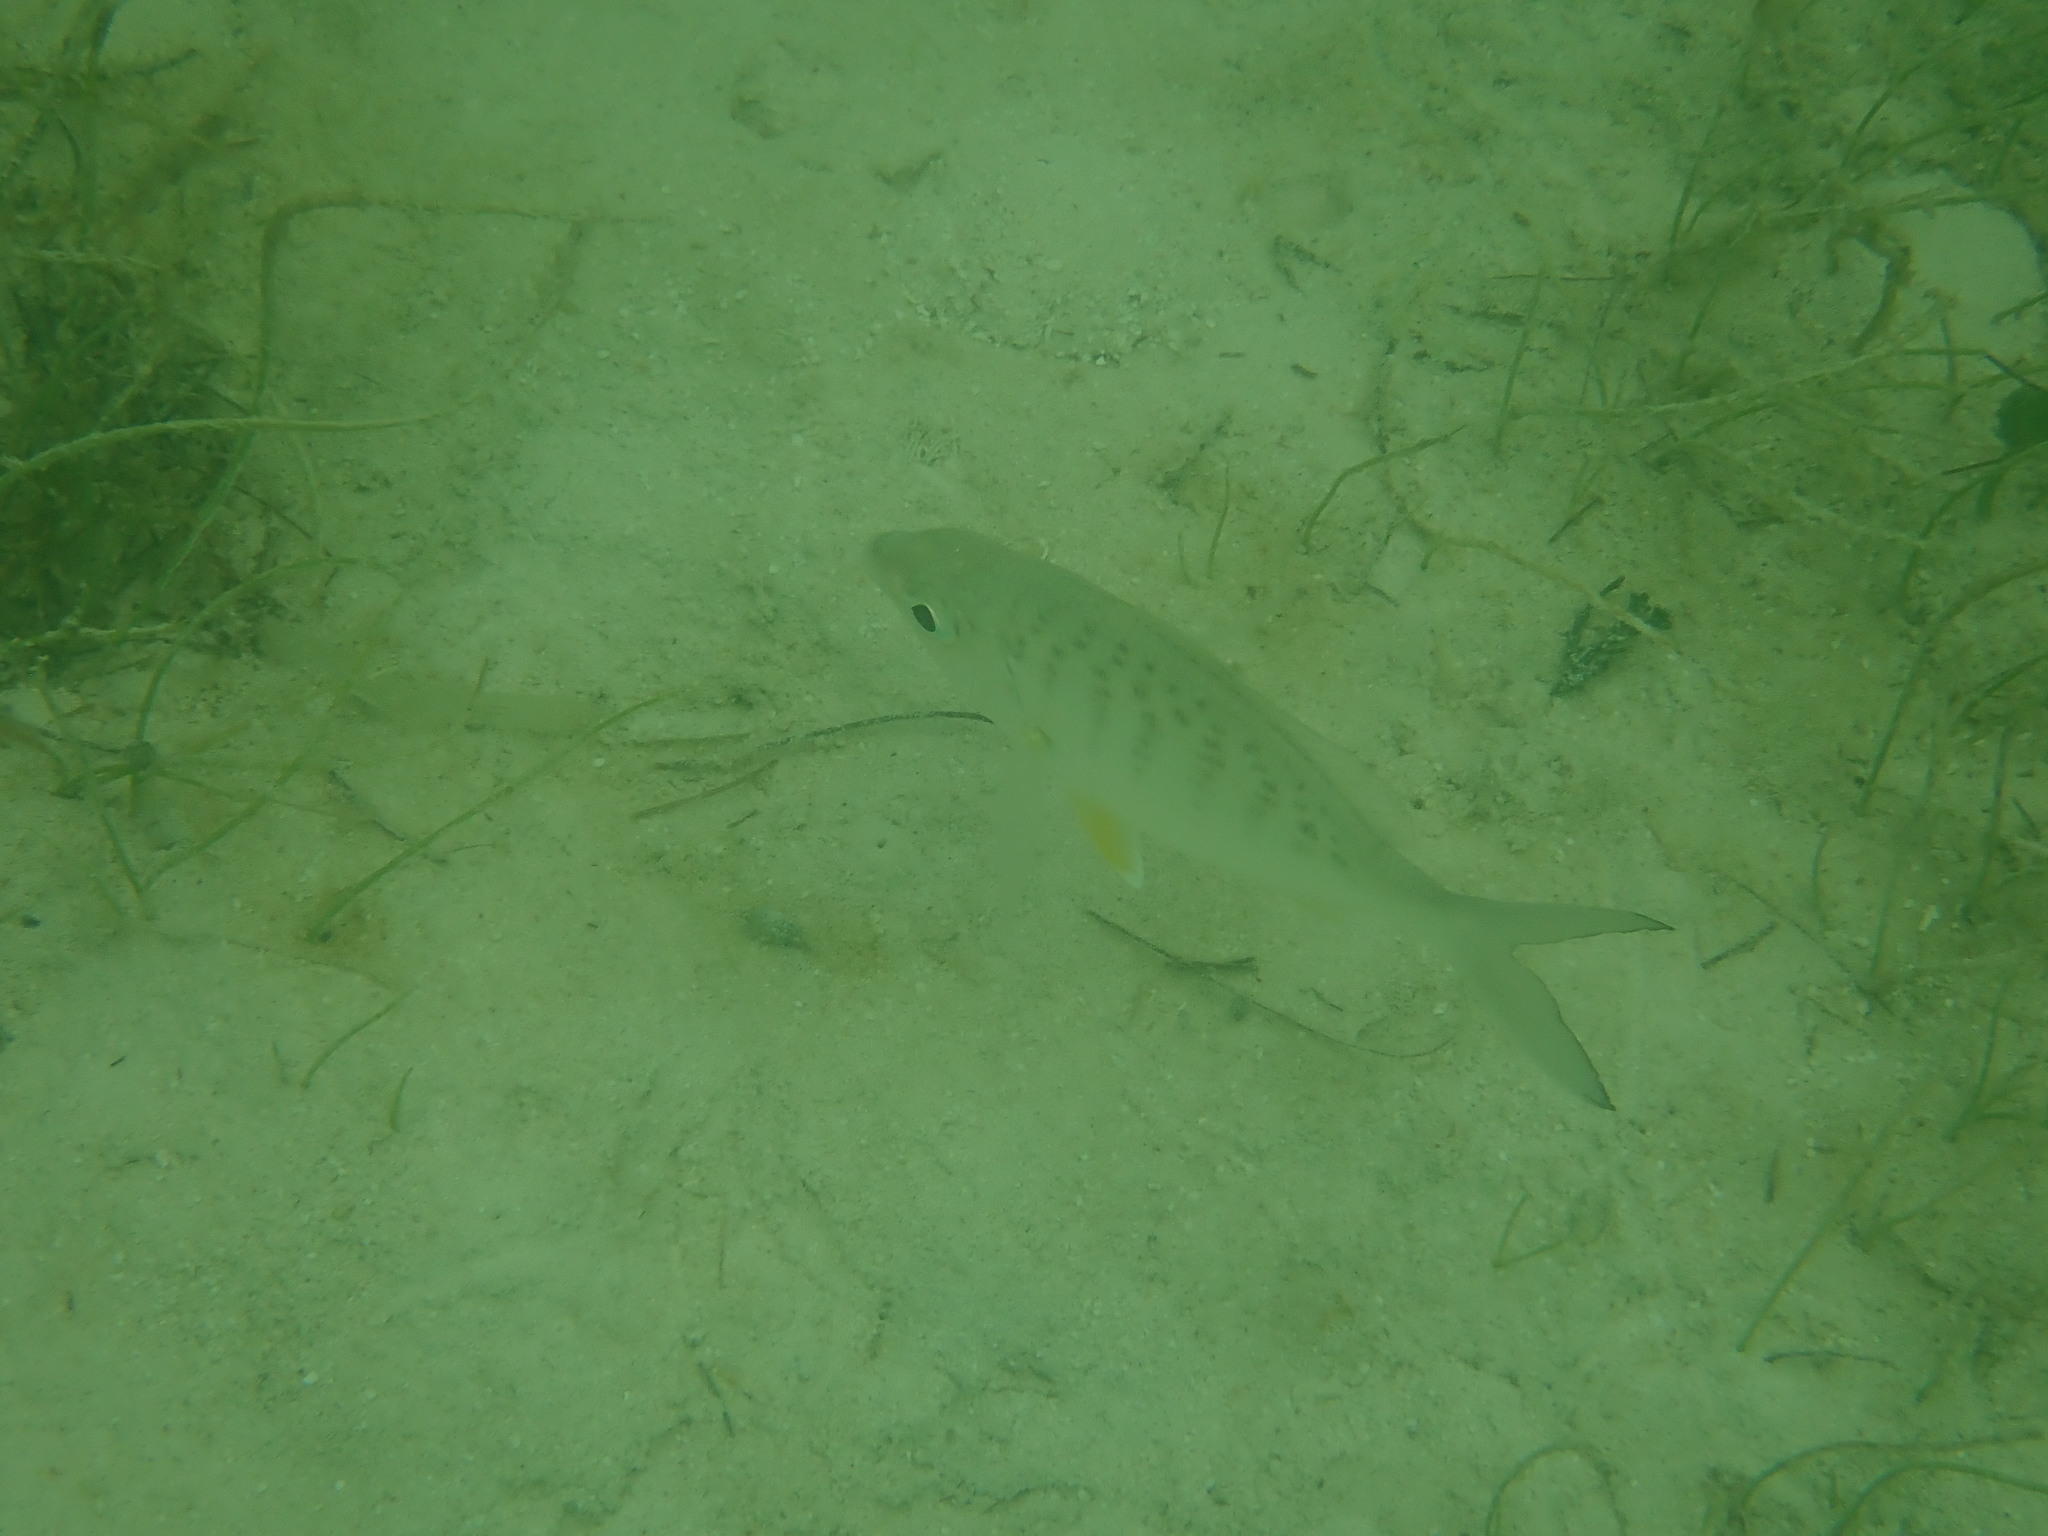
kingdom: Animalia
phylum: Chordata
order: Perciformes
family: Gerreidae
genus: Gerres
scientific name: Gerres cinereus
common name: Hedow
